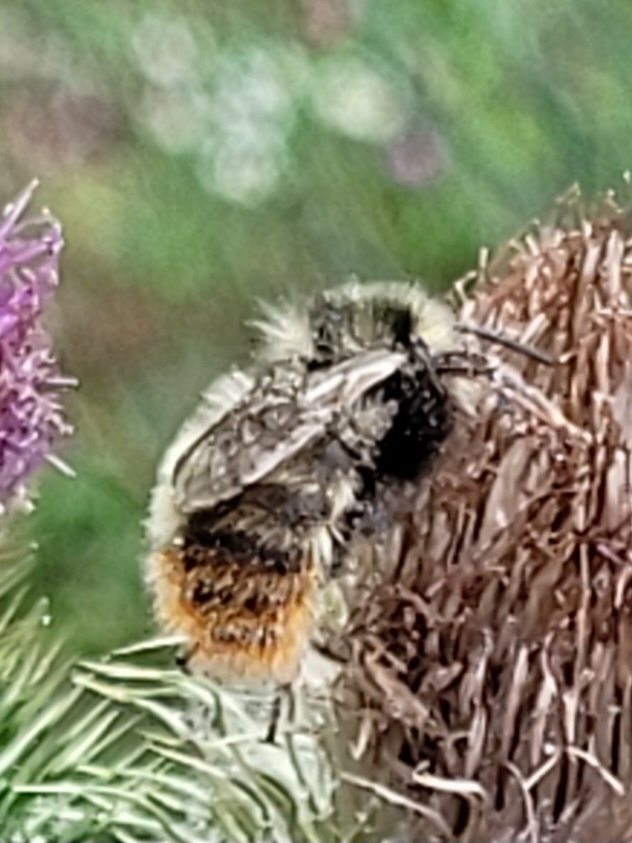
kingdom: Animalia
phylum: Arthropoda
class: Insecta
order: Hymenoptera
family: Apidae
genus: Bombus
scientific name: Bombus rupestris
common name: Hill cuckoo-bee
